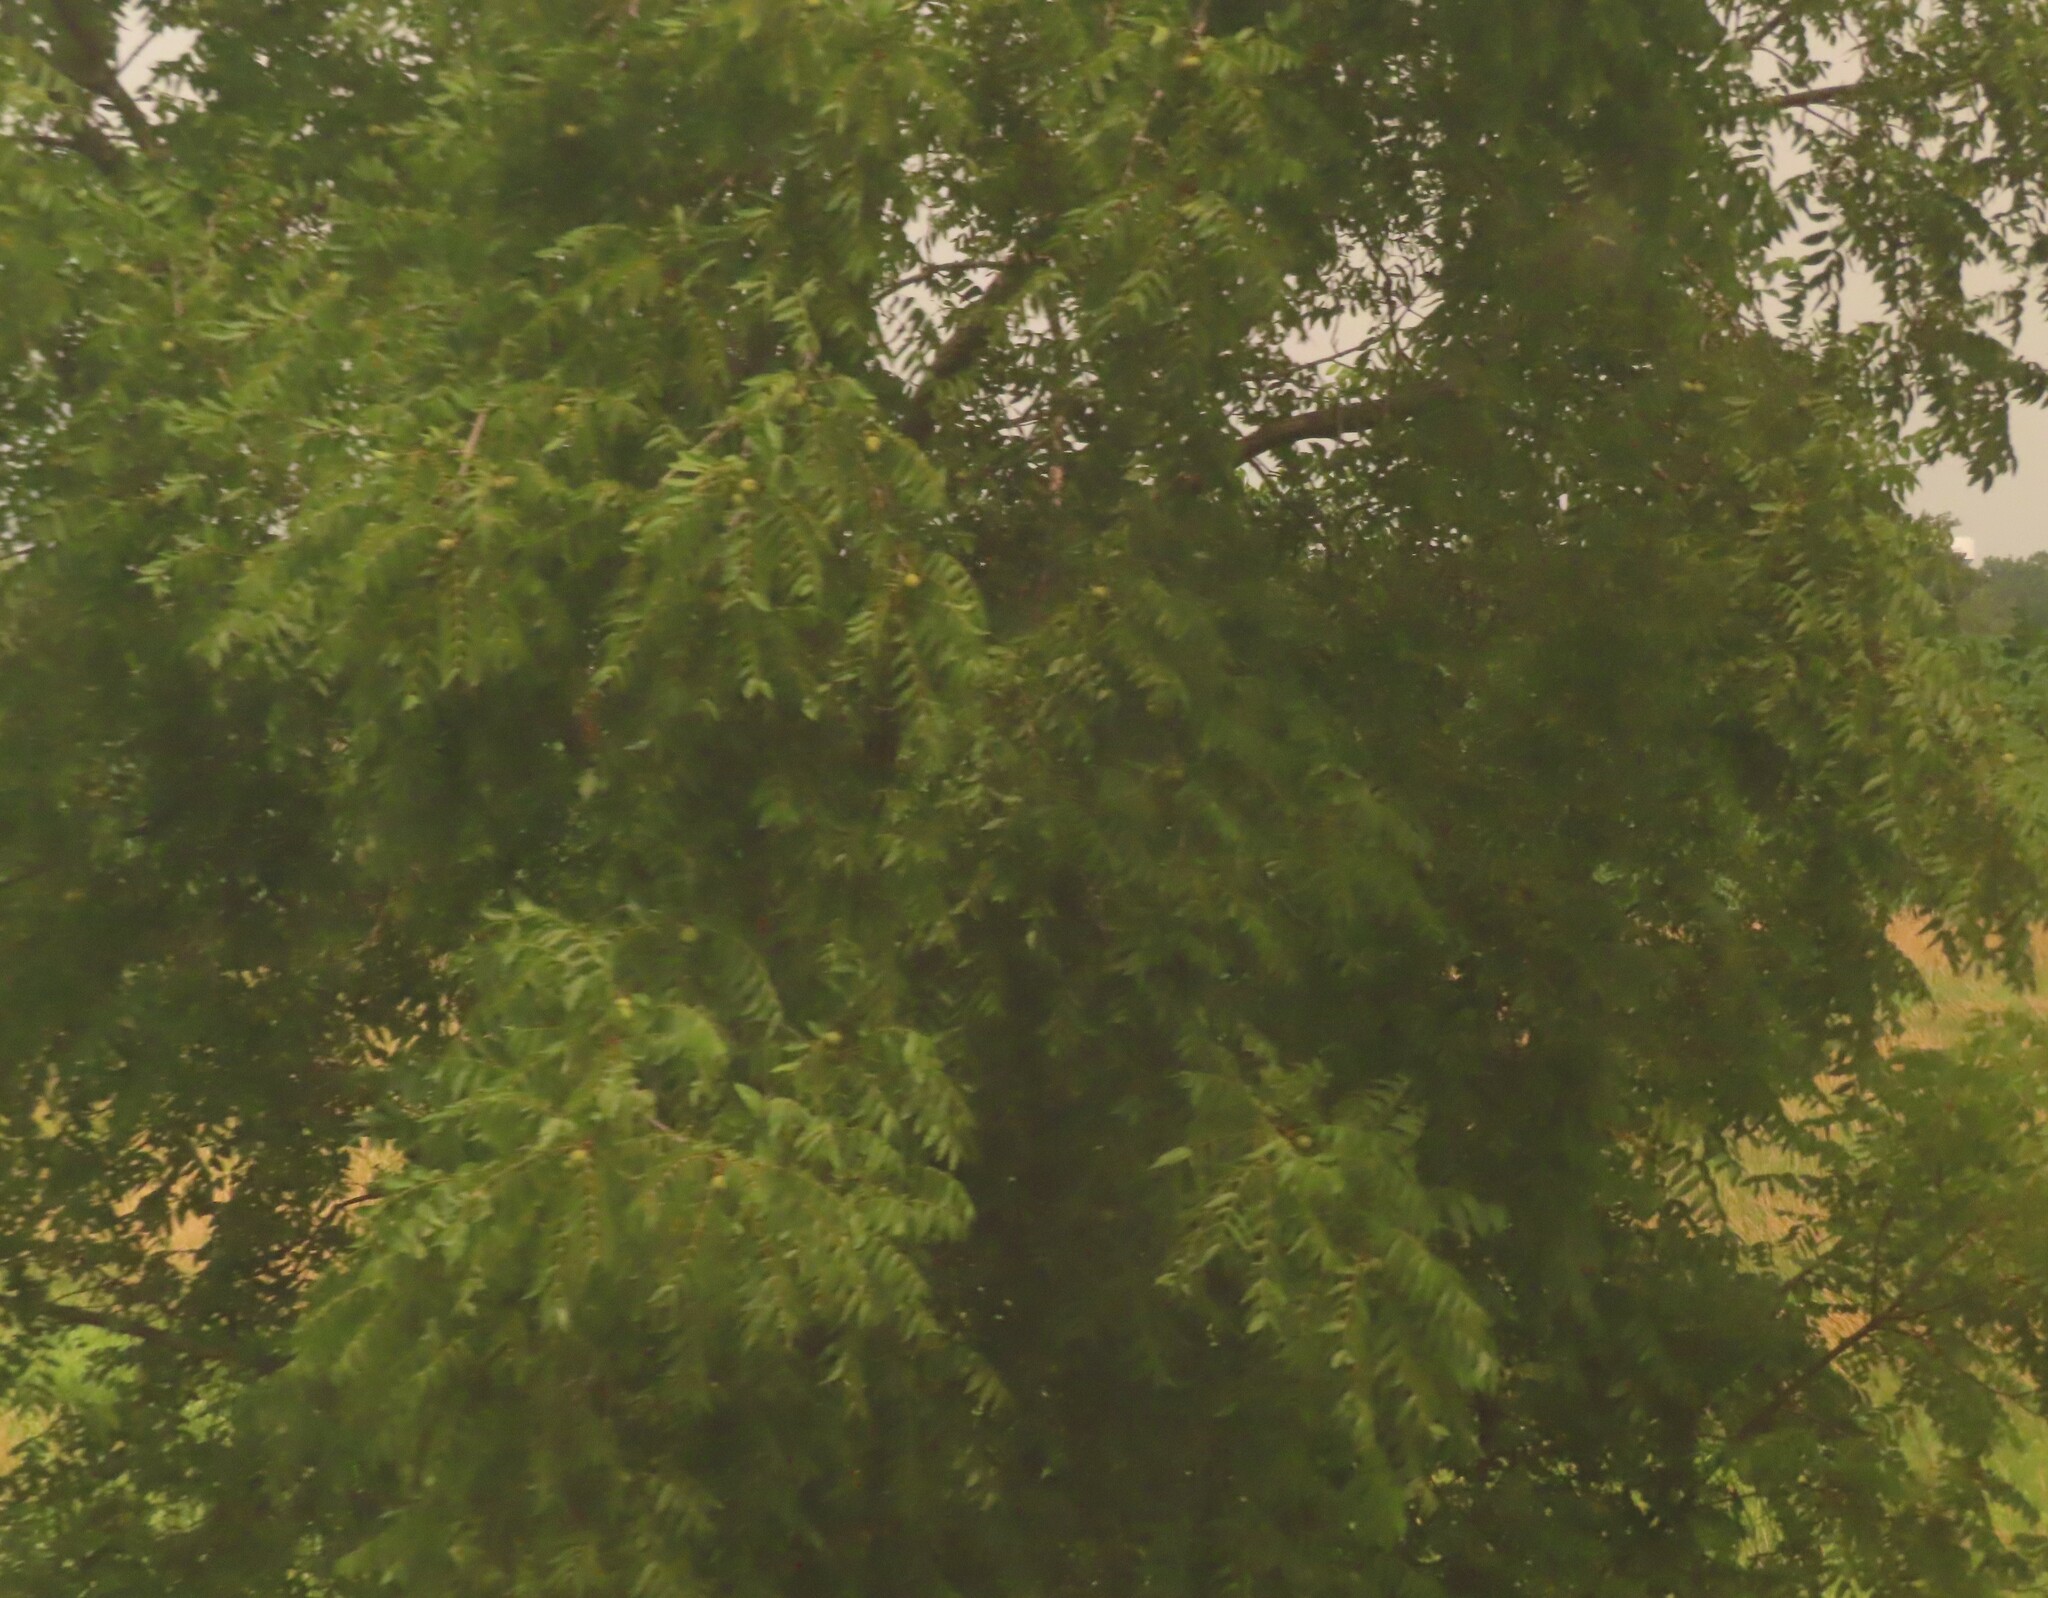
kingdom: Plantae
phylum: Tracheophyta
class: Magnoliopsida
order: Fagales
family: Juglandaceae
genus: Juglans
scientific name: Juglans nigra
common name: Black walnut
